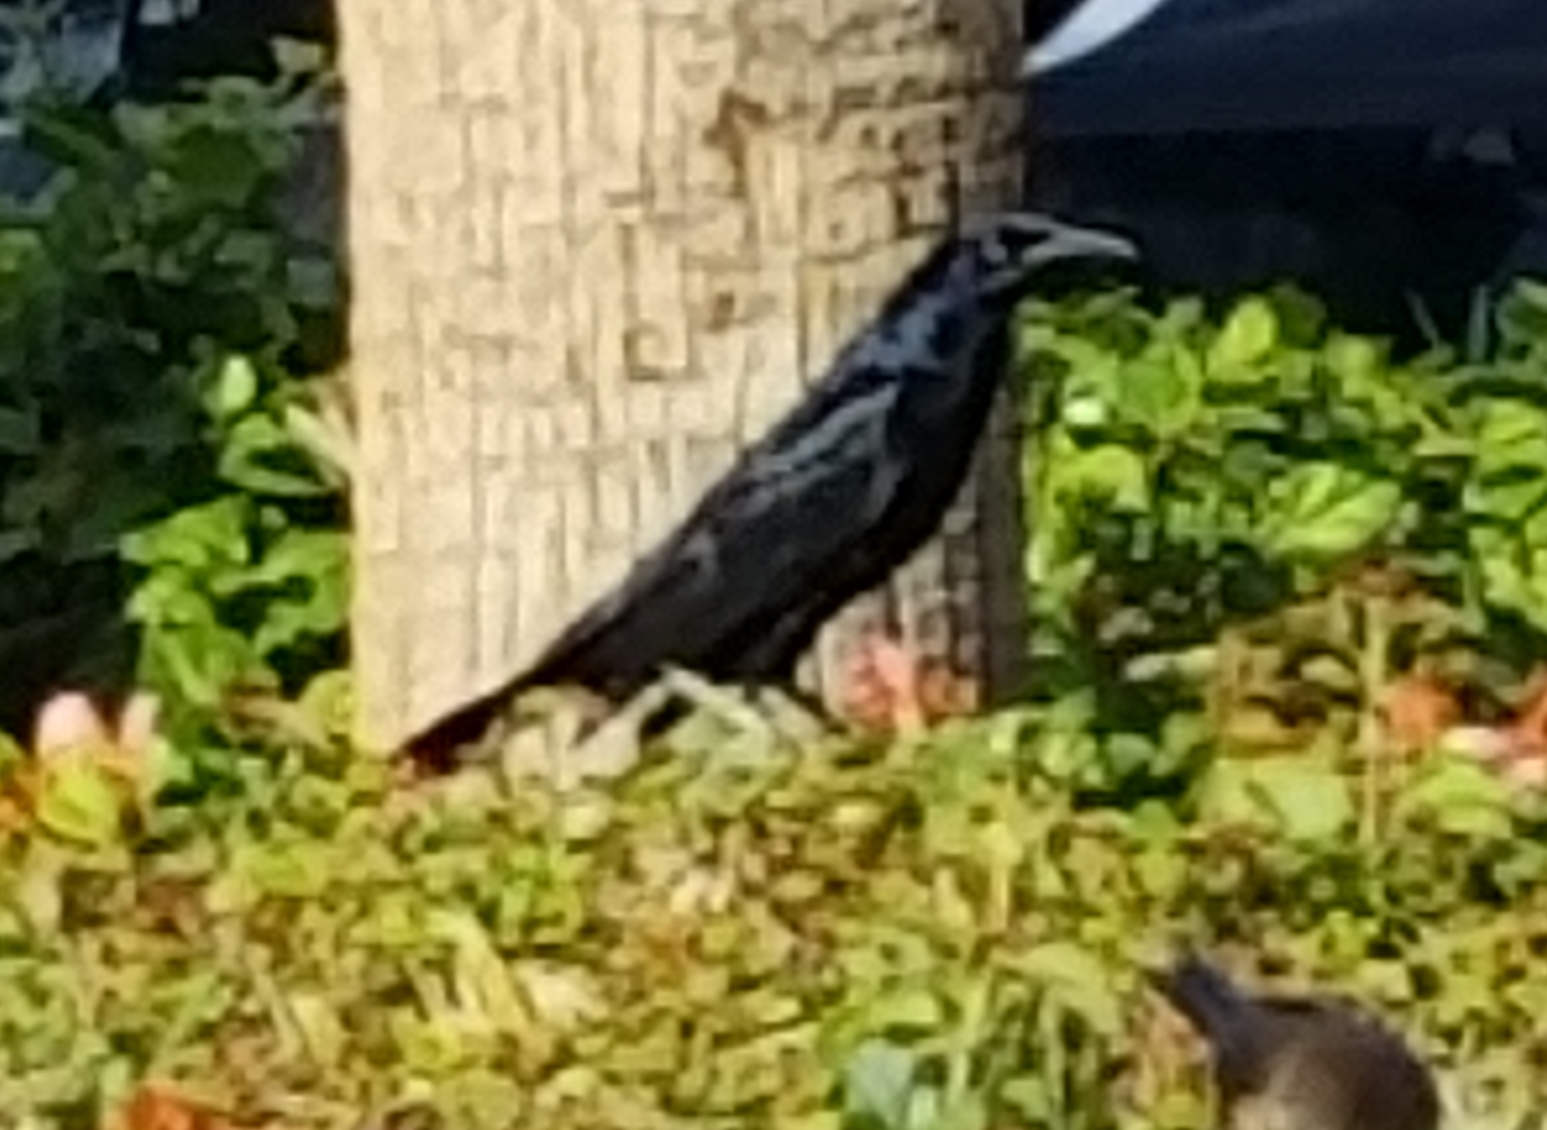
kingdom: Animalia
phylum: Chordata
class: Aves
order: Passeriformes
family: Icteridae
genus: Quiscalus
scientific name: Quiscalus mexicanus
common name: Great-tailed grackle
